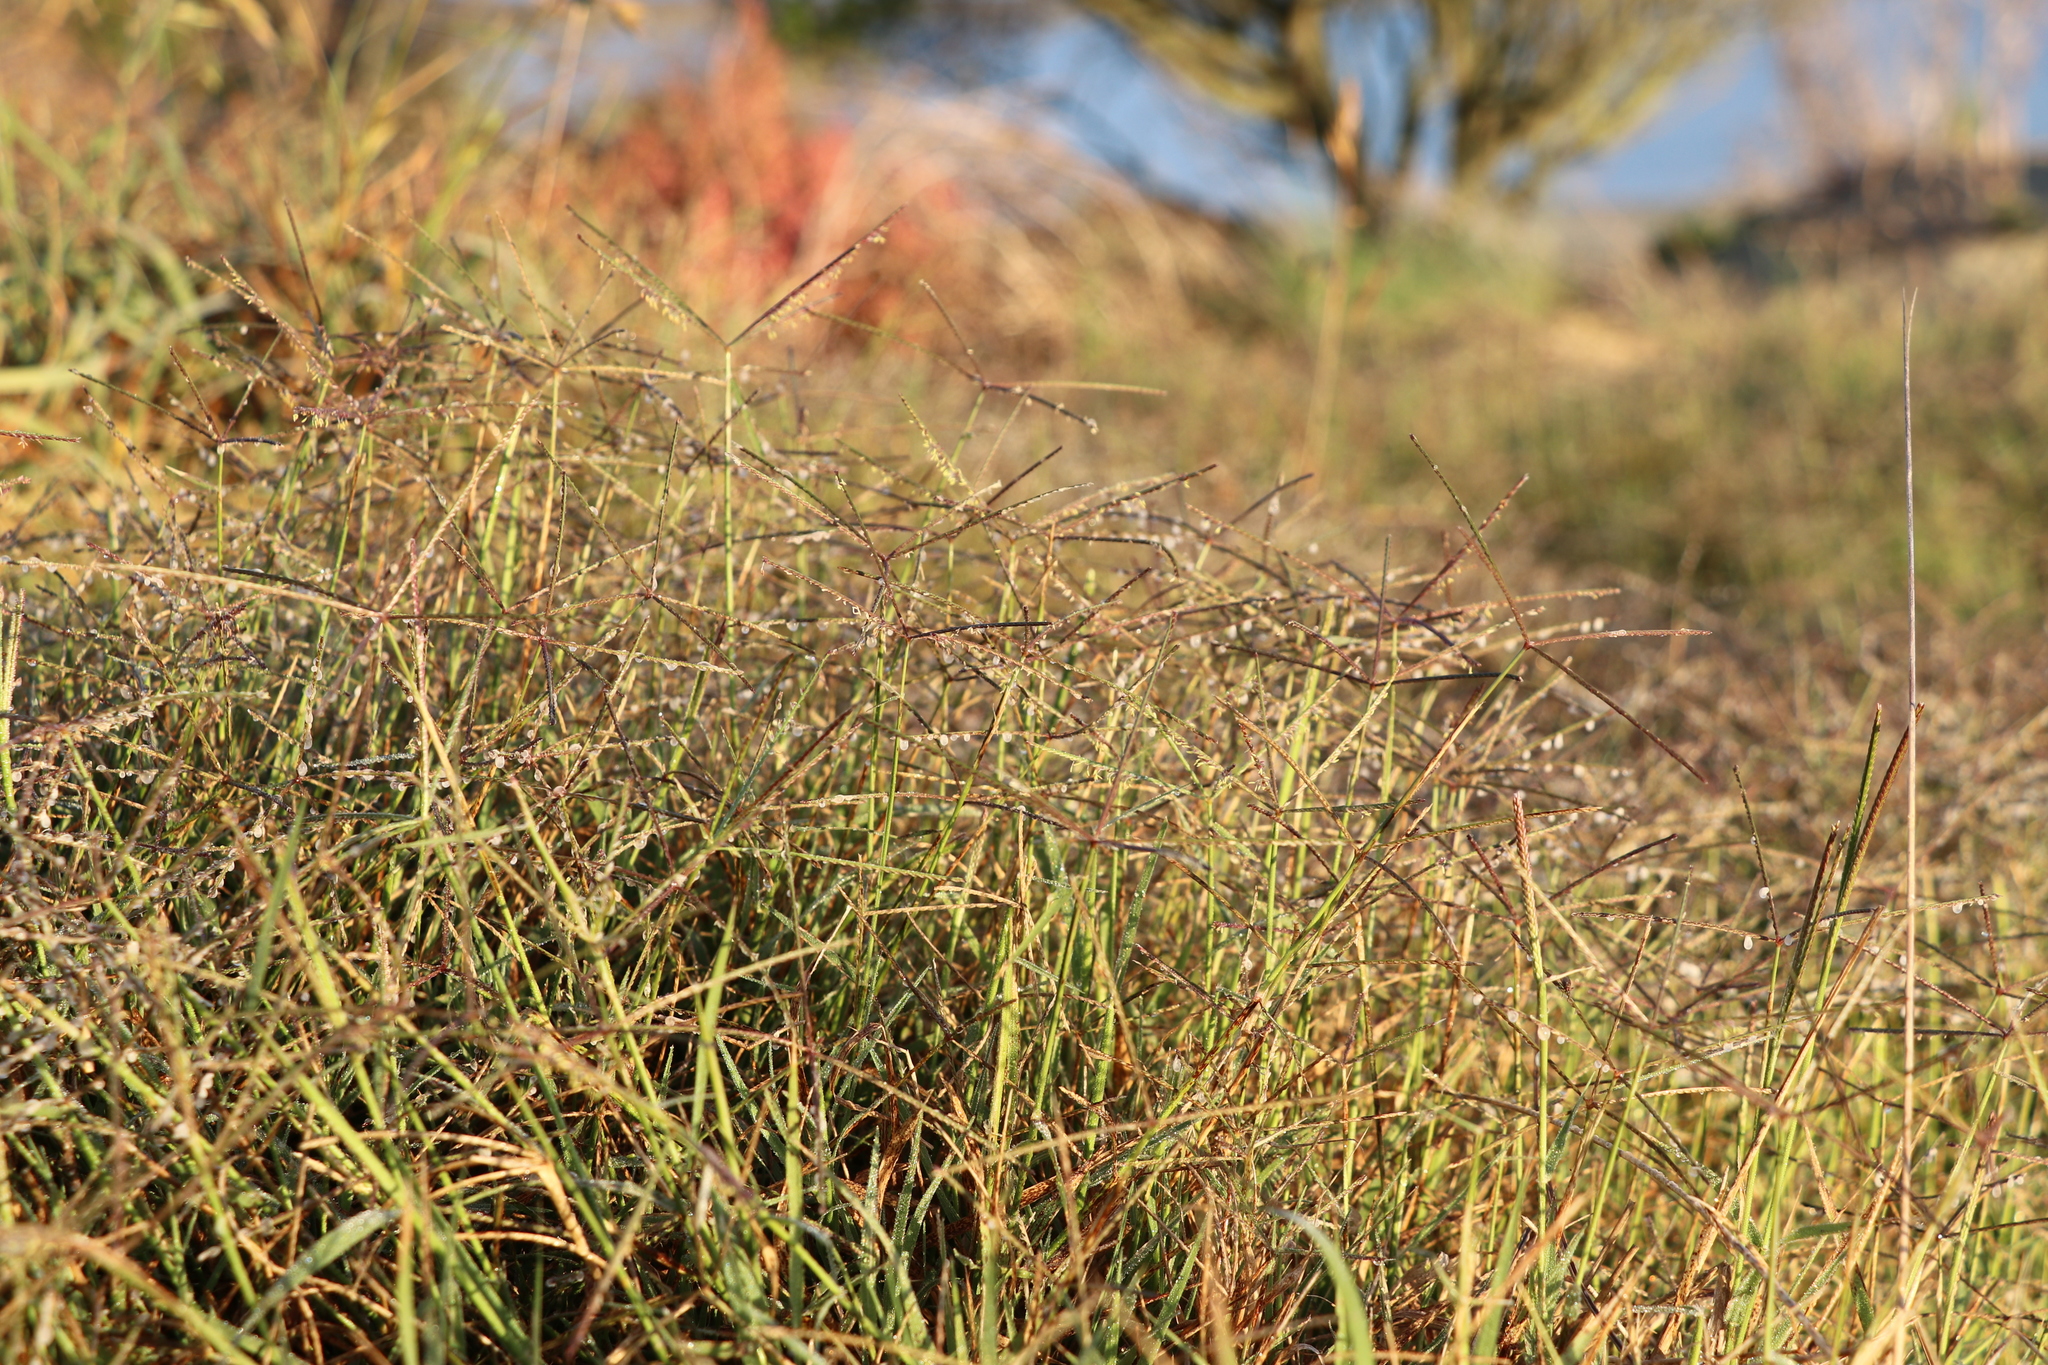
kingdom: Plantae
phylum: Tracheophyta
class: Liliopsida
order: Poales
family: Poaceae
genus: Digitaria
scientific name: Digitaria sanguinalis
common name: Hairy crabgrass
